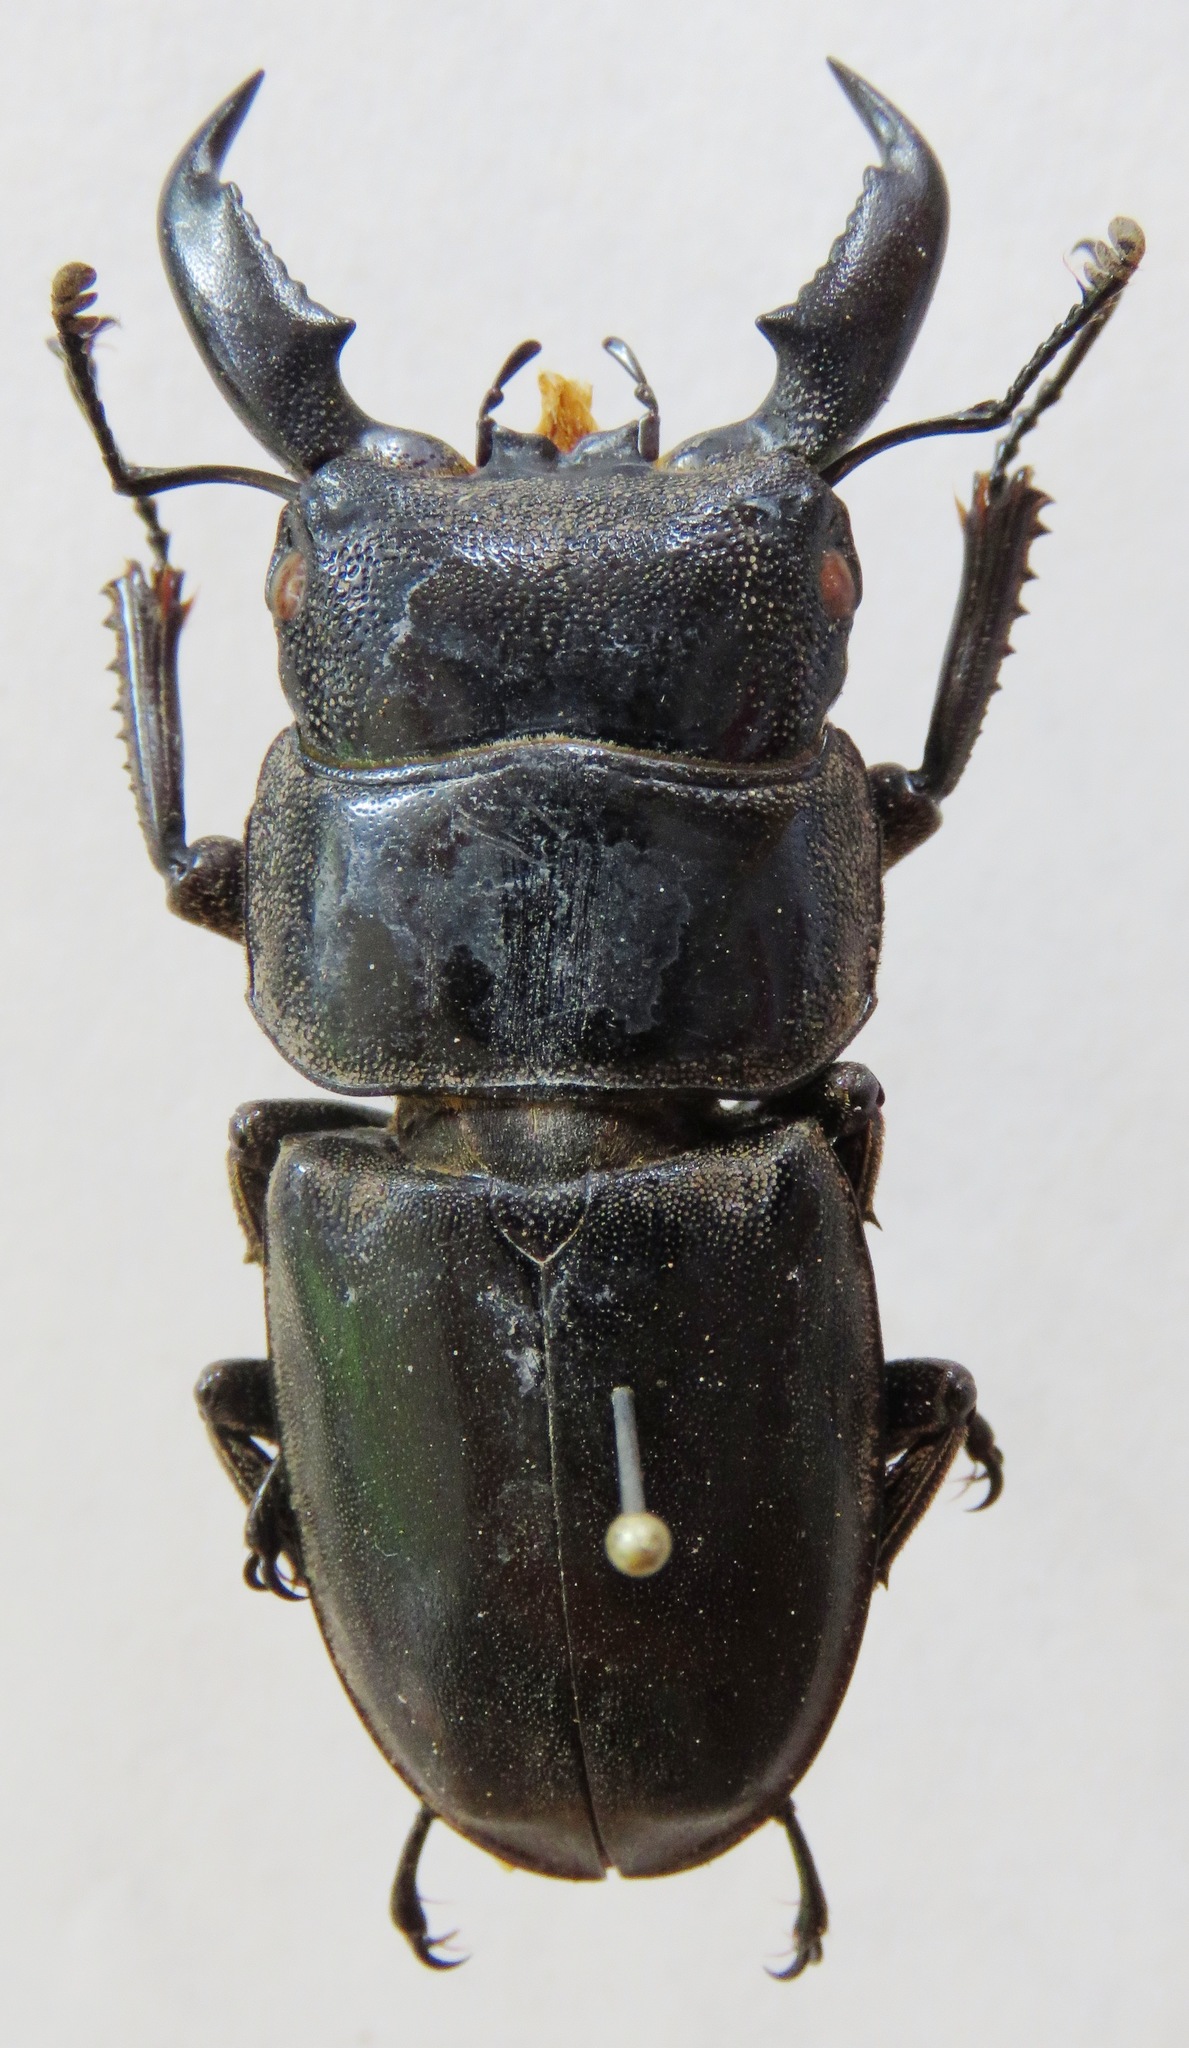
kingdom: Animalia
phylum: Arthropoda
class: Insecta
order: Coleoptera
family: Lucanidae
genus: Serrognathus
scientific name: Serrognathus titanus
